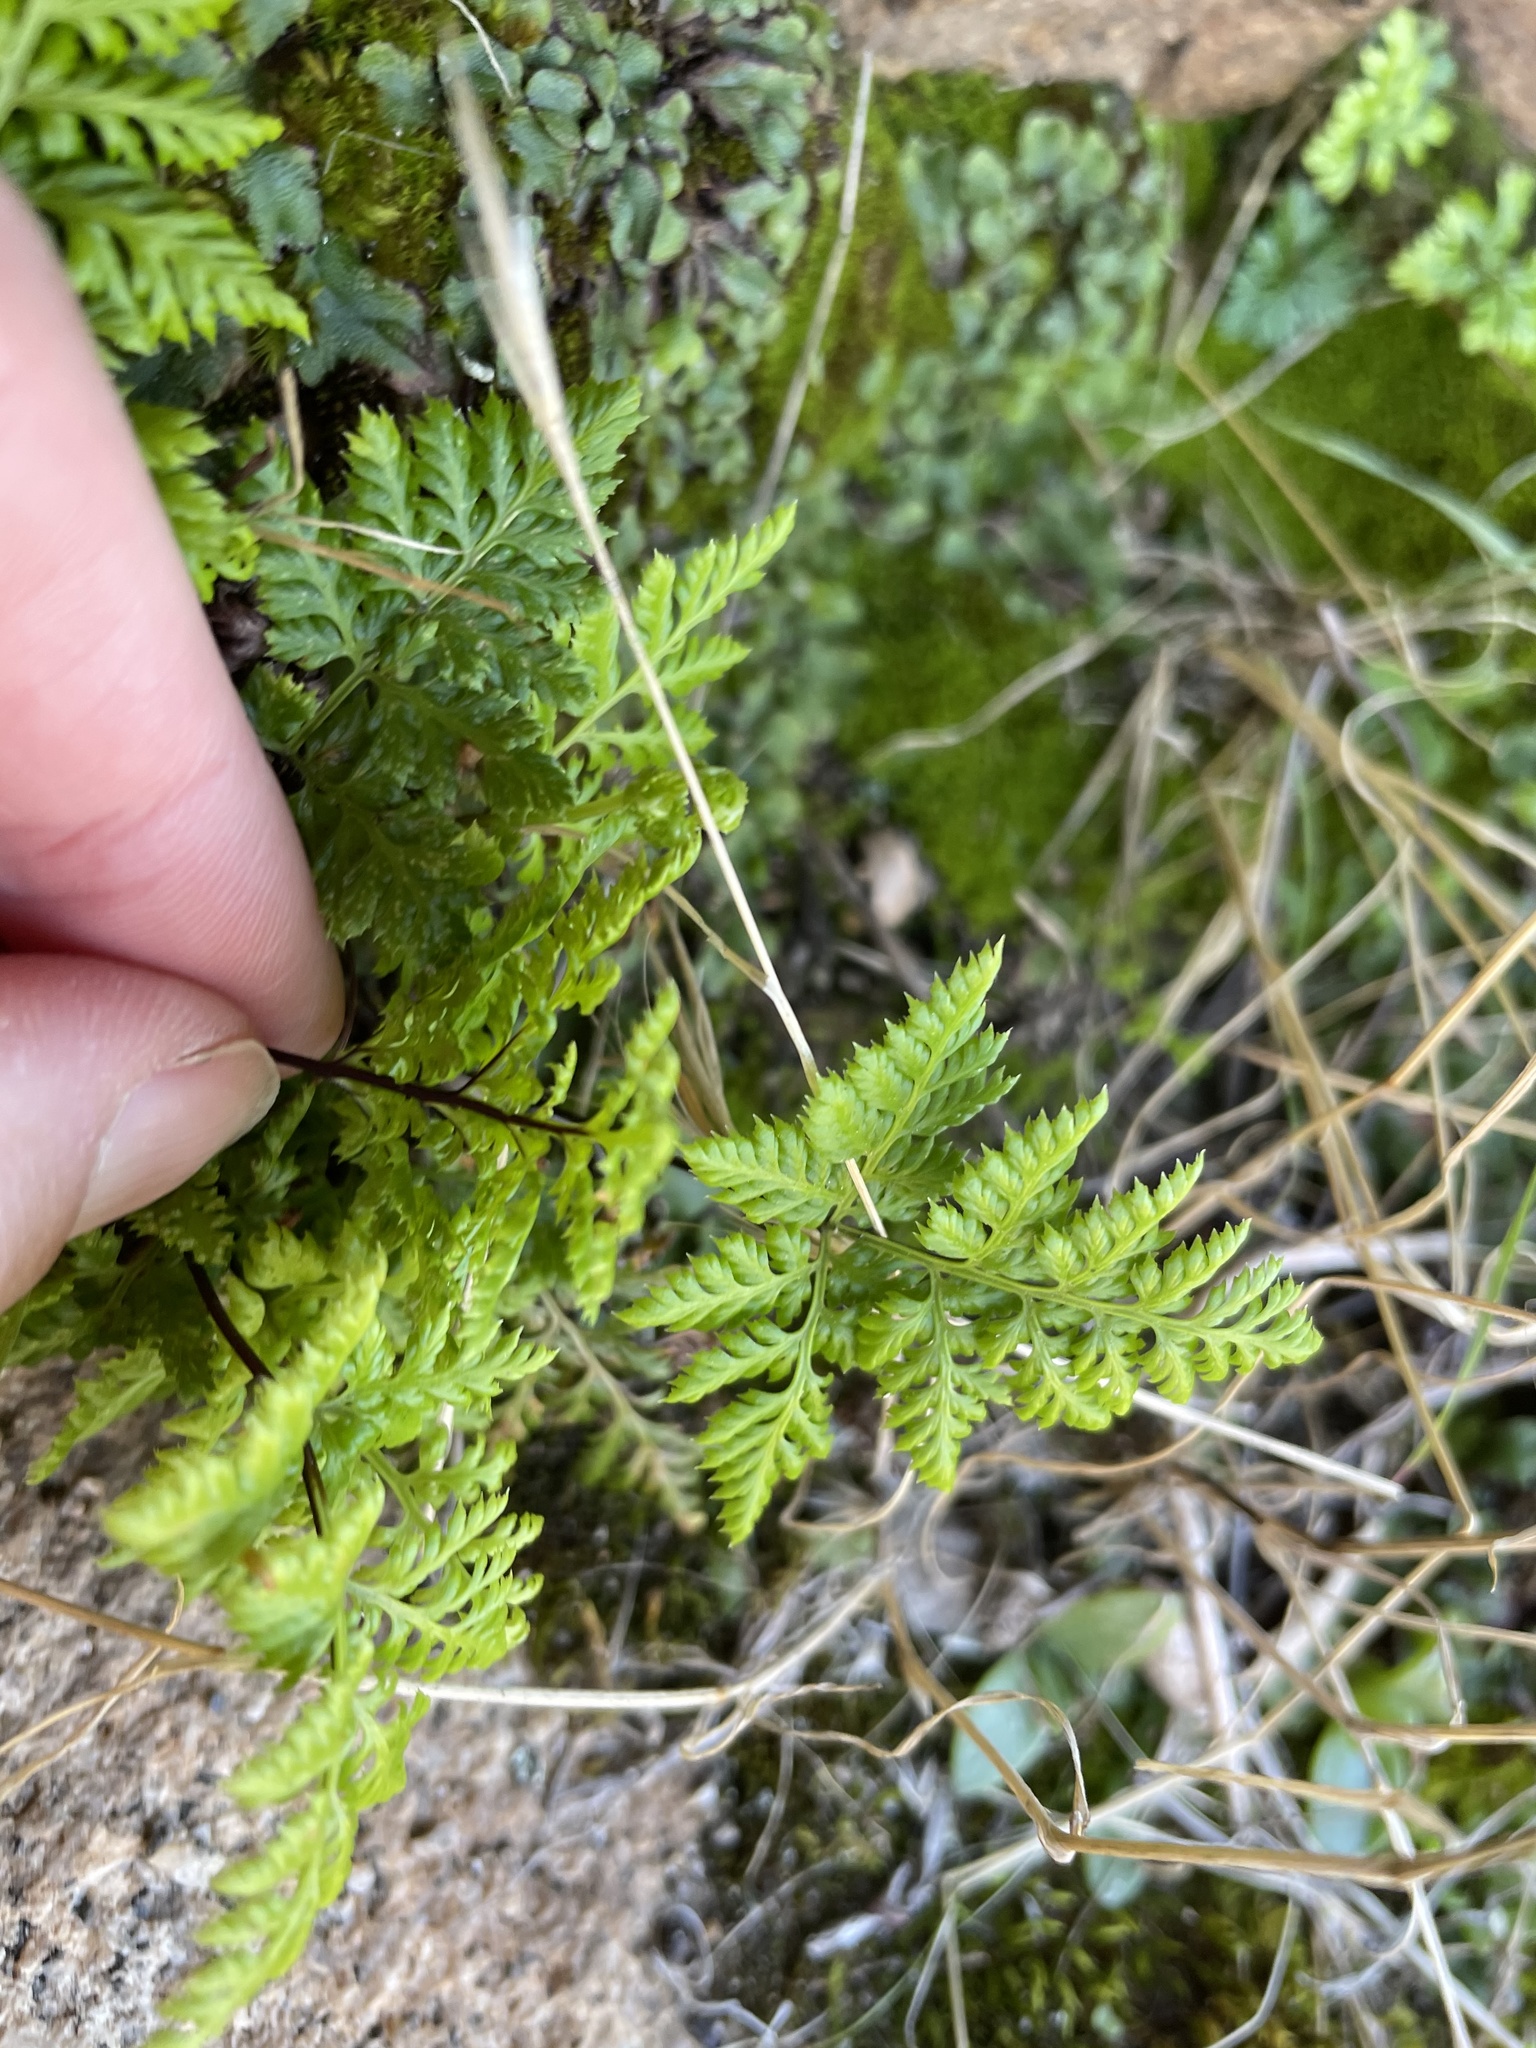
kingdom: Plantae
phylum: Tracheophyta
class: Polypodiopsida
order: Polypodiales
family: Pteridaceae
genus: Aspidotis
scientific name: Aspidotis californica
